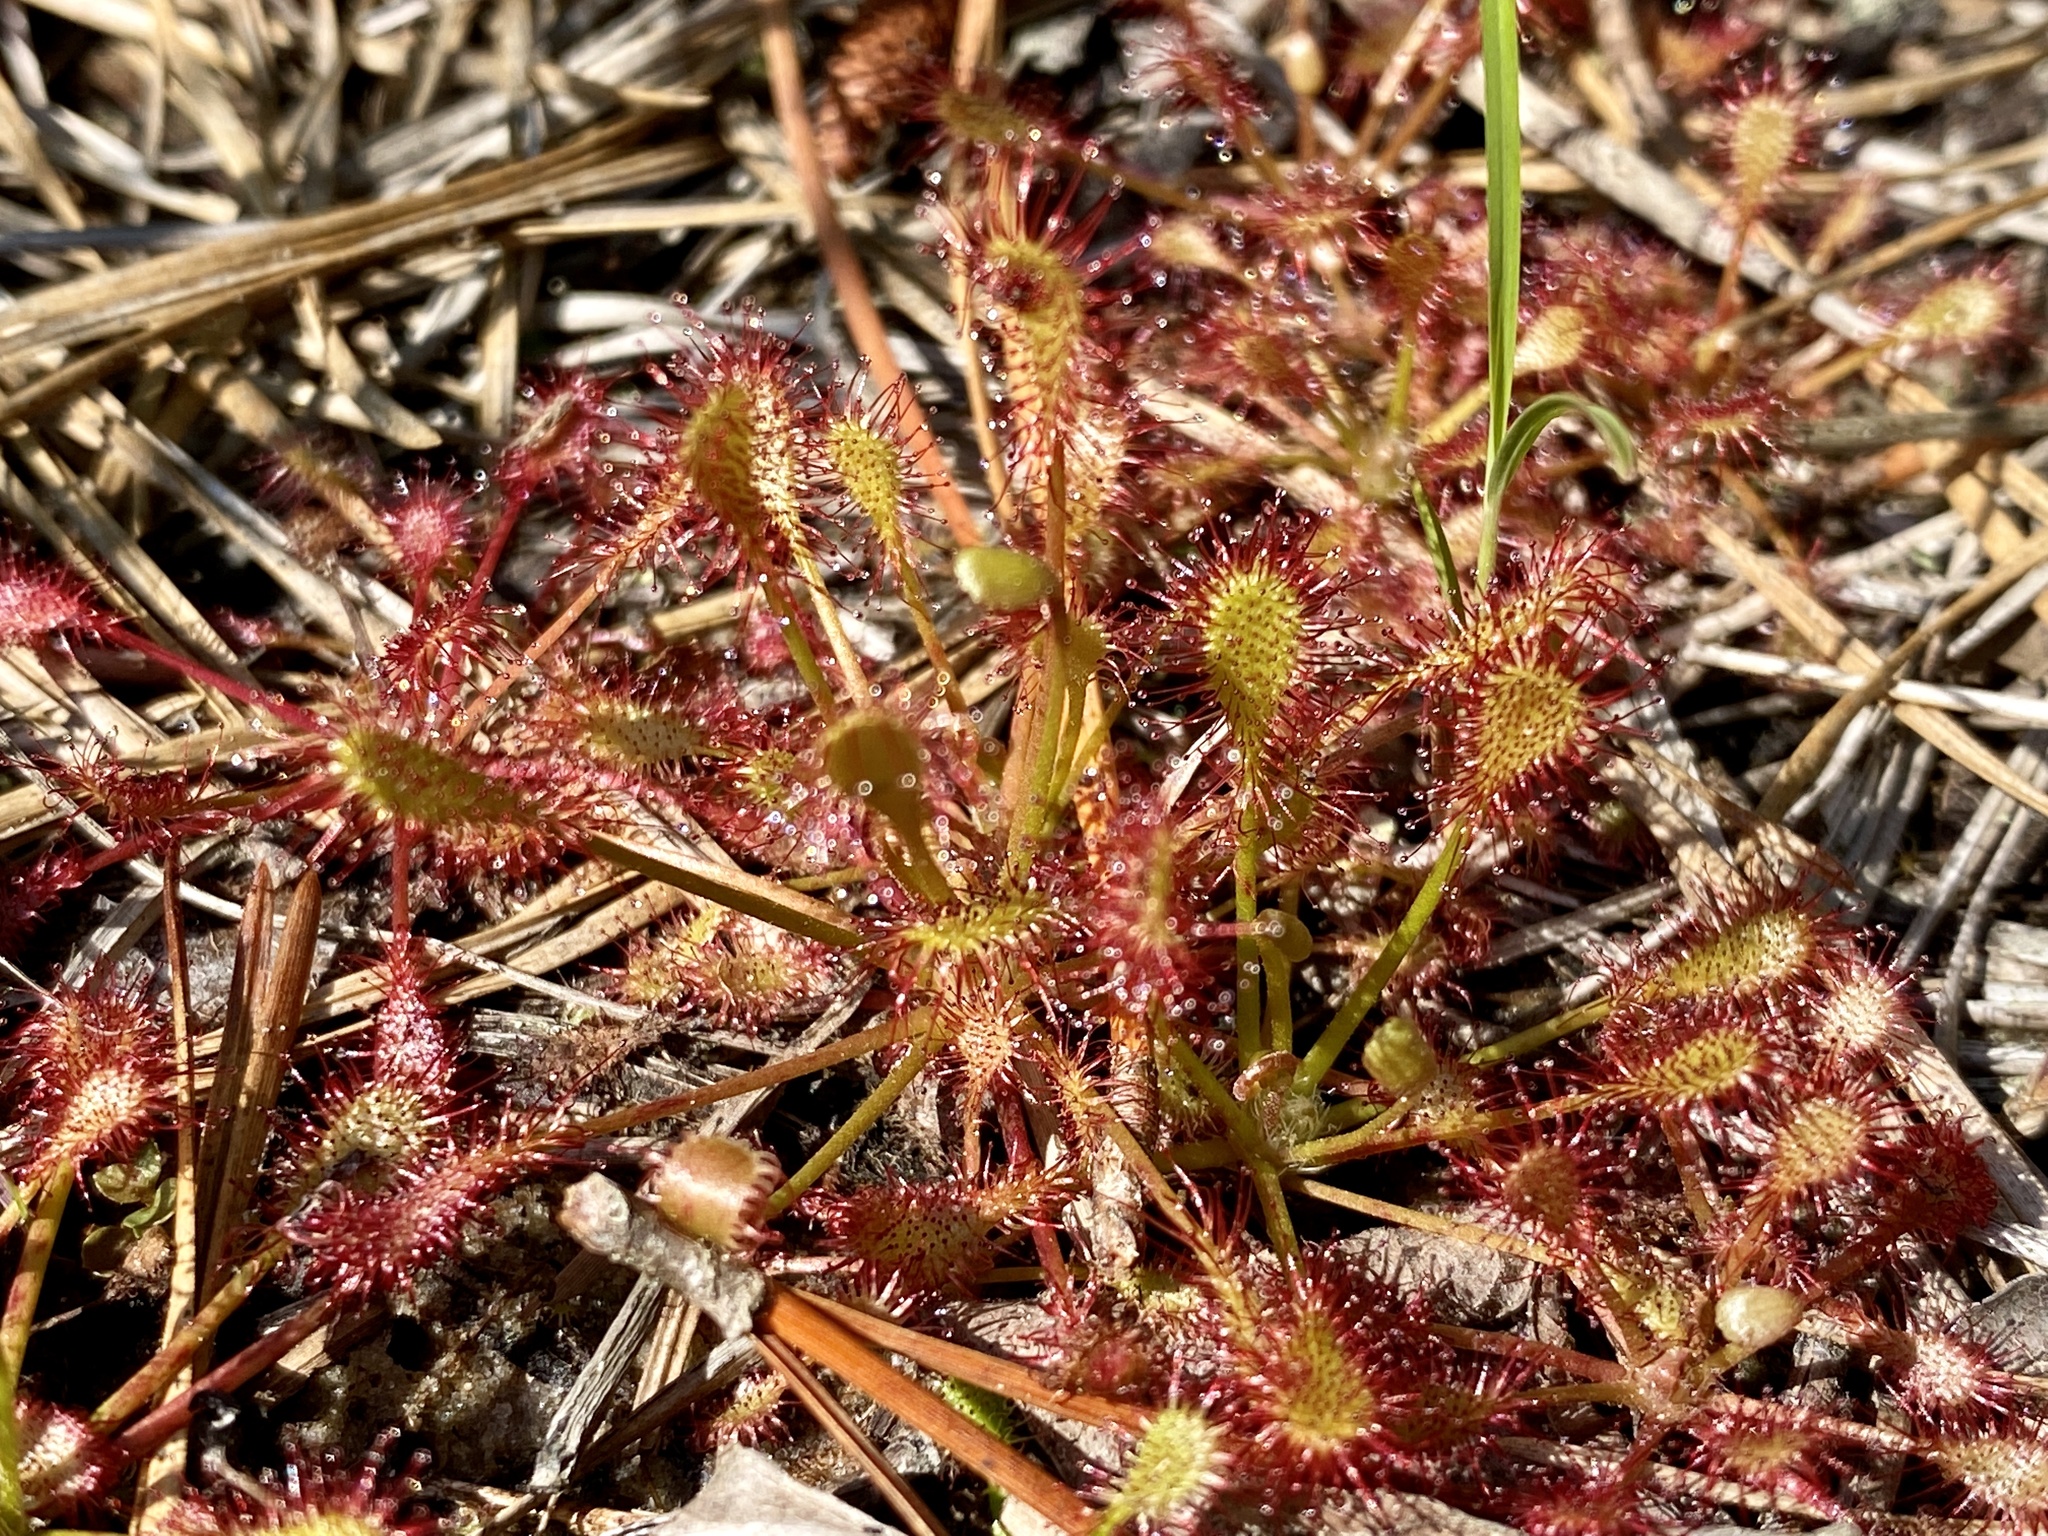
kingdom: Plantae
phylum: Tracheophyta
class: Magnoliopsida
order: Caryophyllales
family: Droseraceae
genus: Drosera
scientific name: Drosera intermedia
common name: Oblong-leaved sundew
